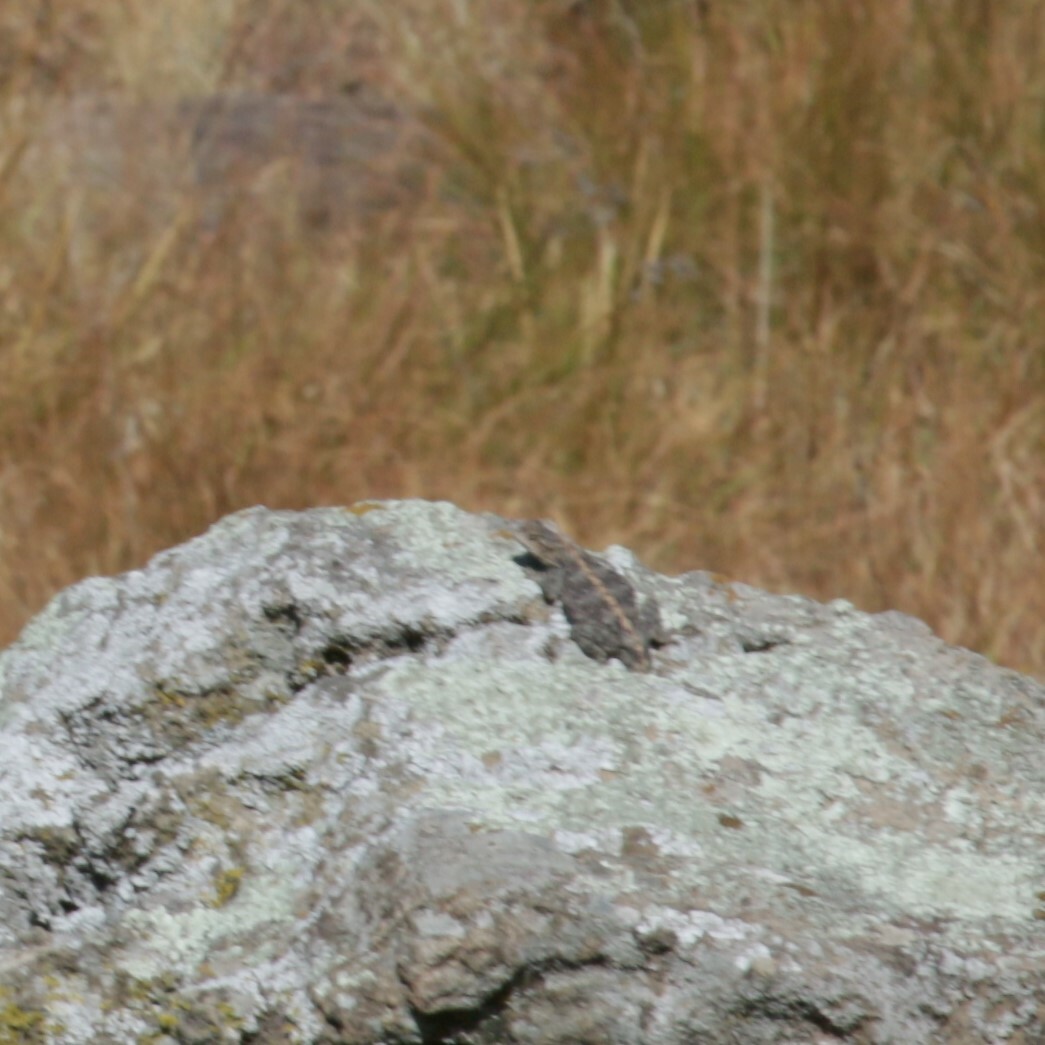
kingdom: Animalia
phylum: Chordata
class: Squamata
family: Agamidae
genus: Agama
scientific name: Agama atra
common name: Southern african rock agama
